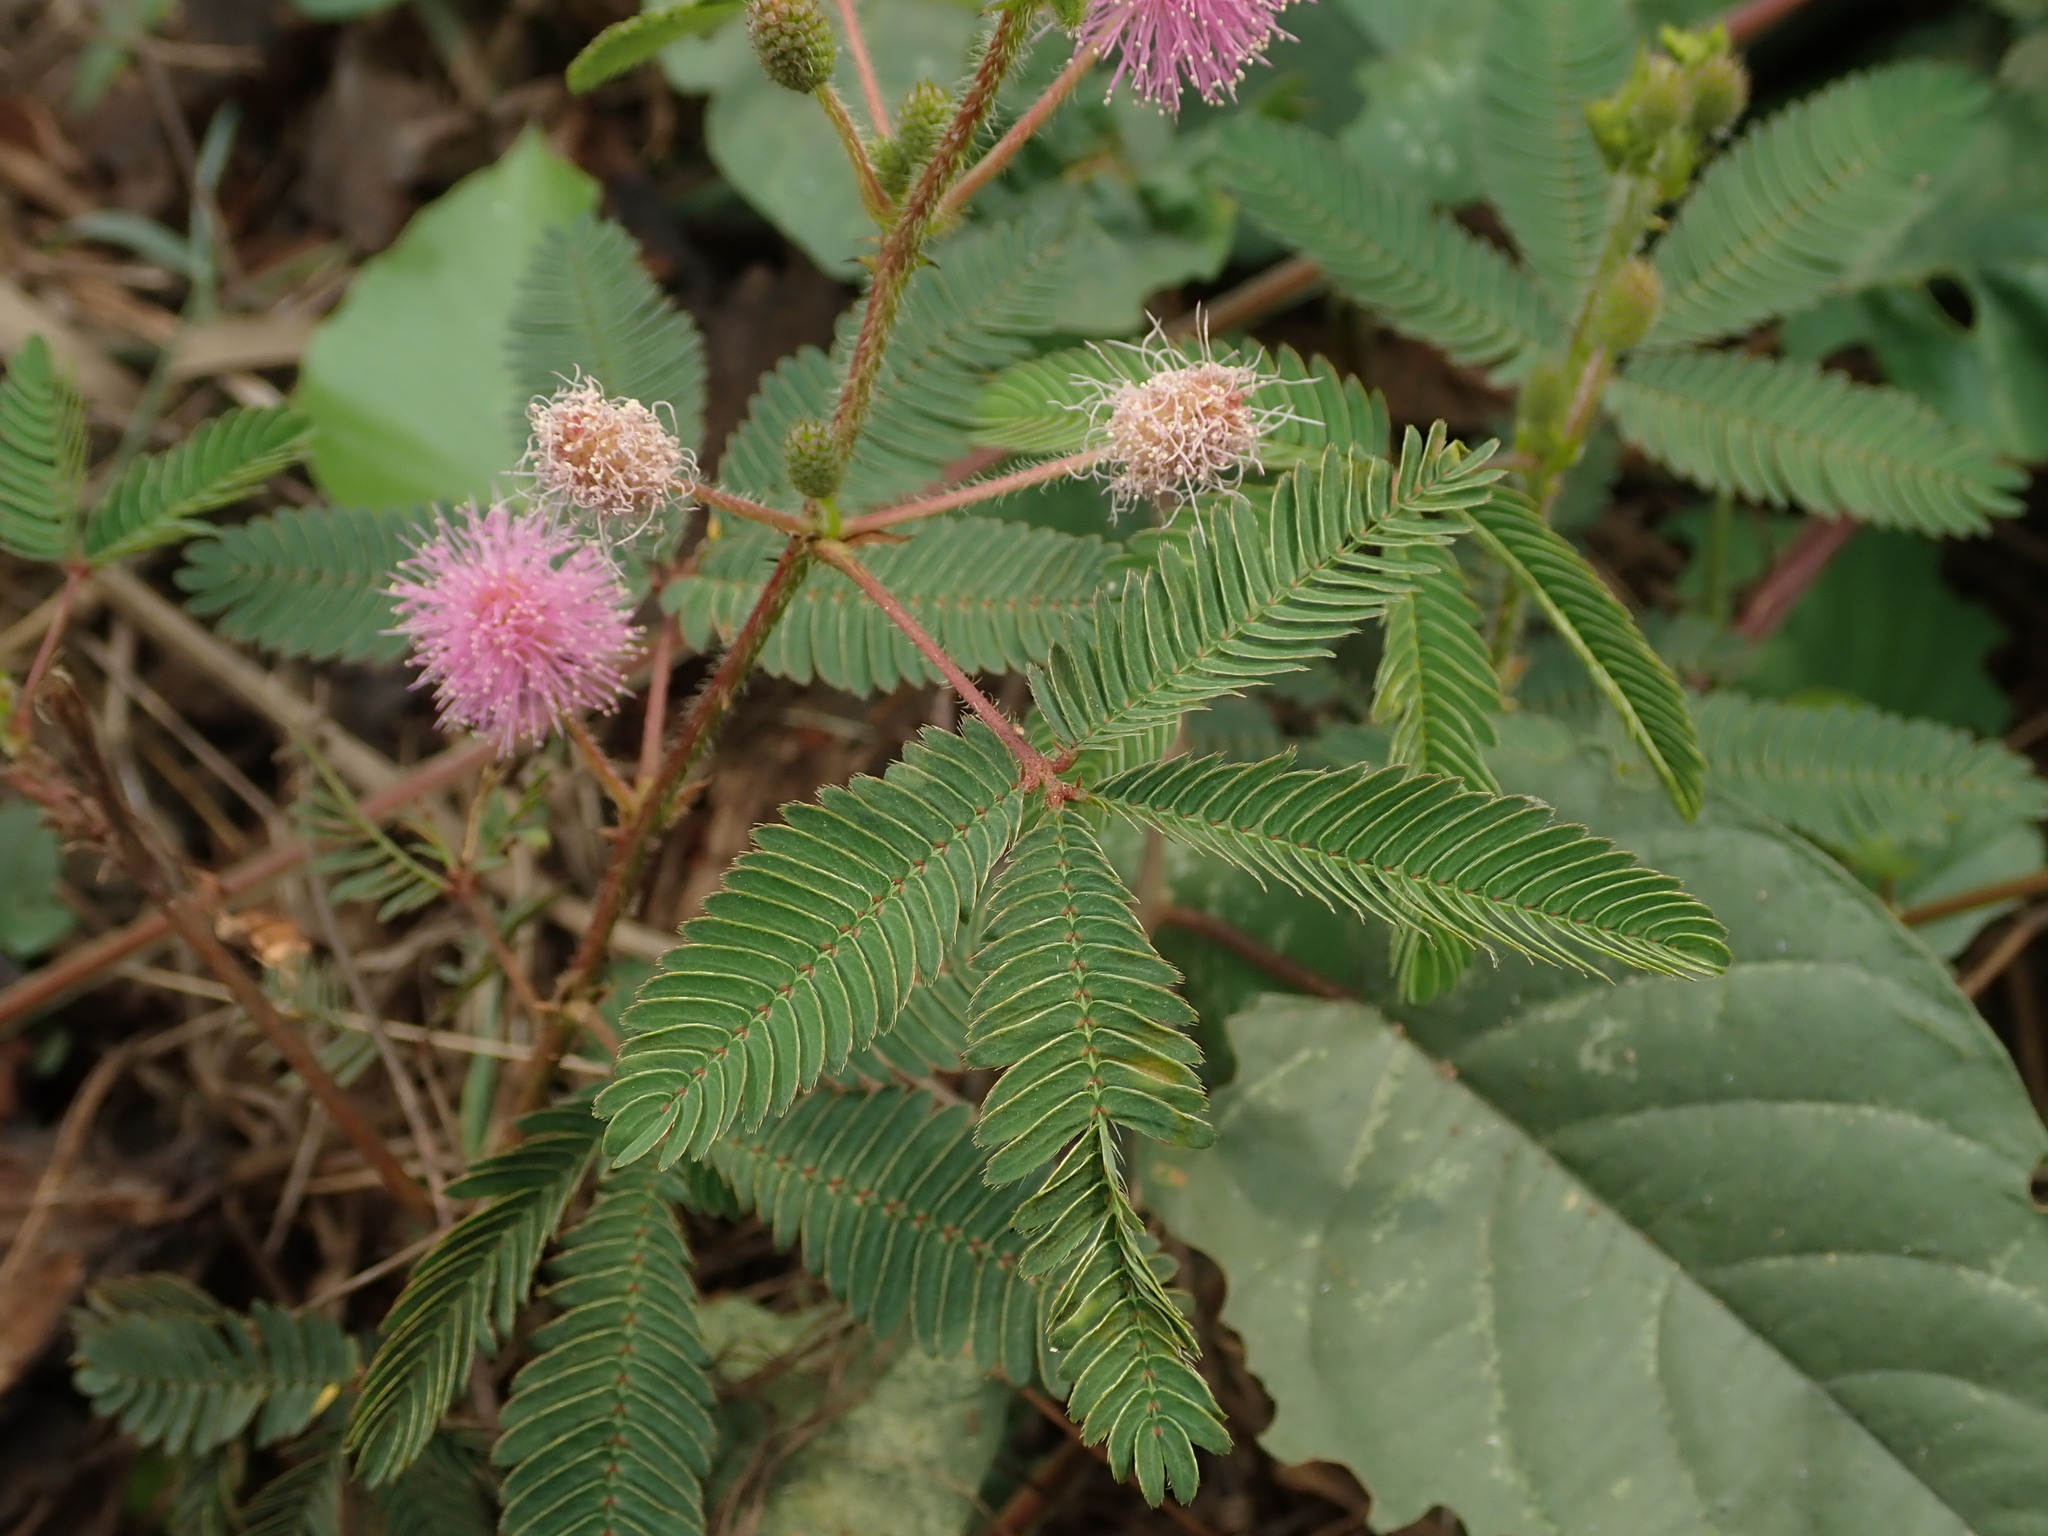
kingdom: Plantae
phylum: Tracheophyta
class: Magnoliopsida
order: Fabales
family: Fabaceae
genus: Mimosa
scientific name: Mimosa pudica
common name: Sensitive plant
